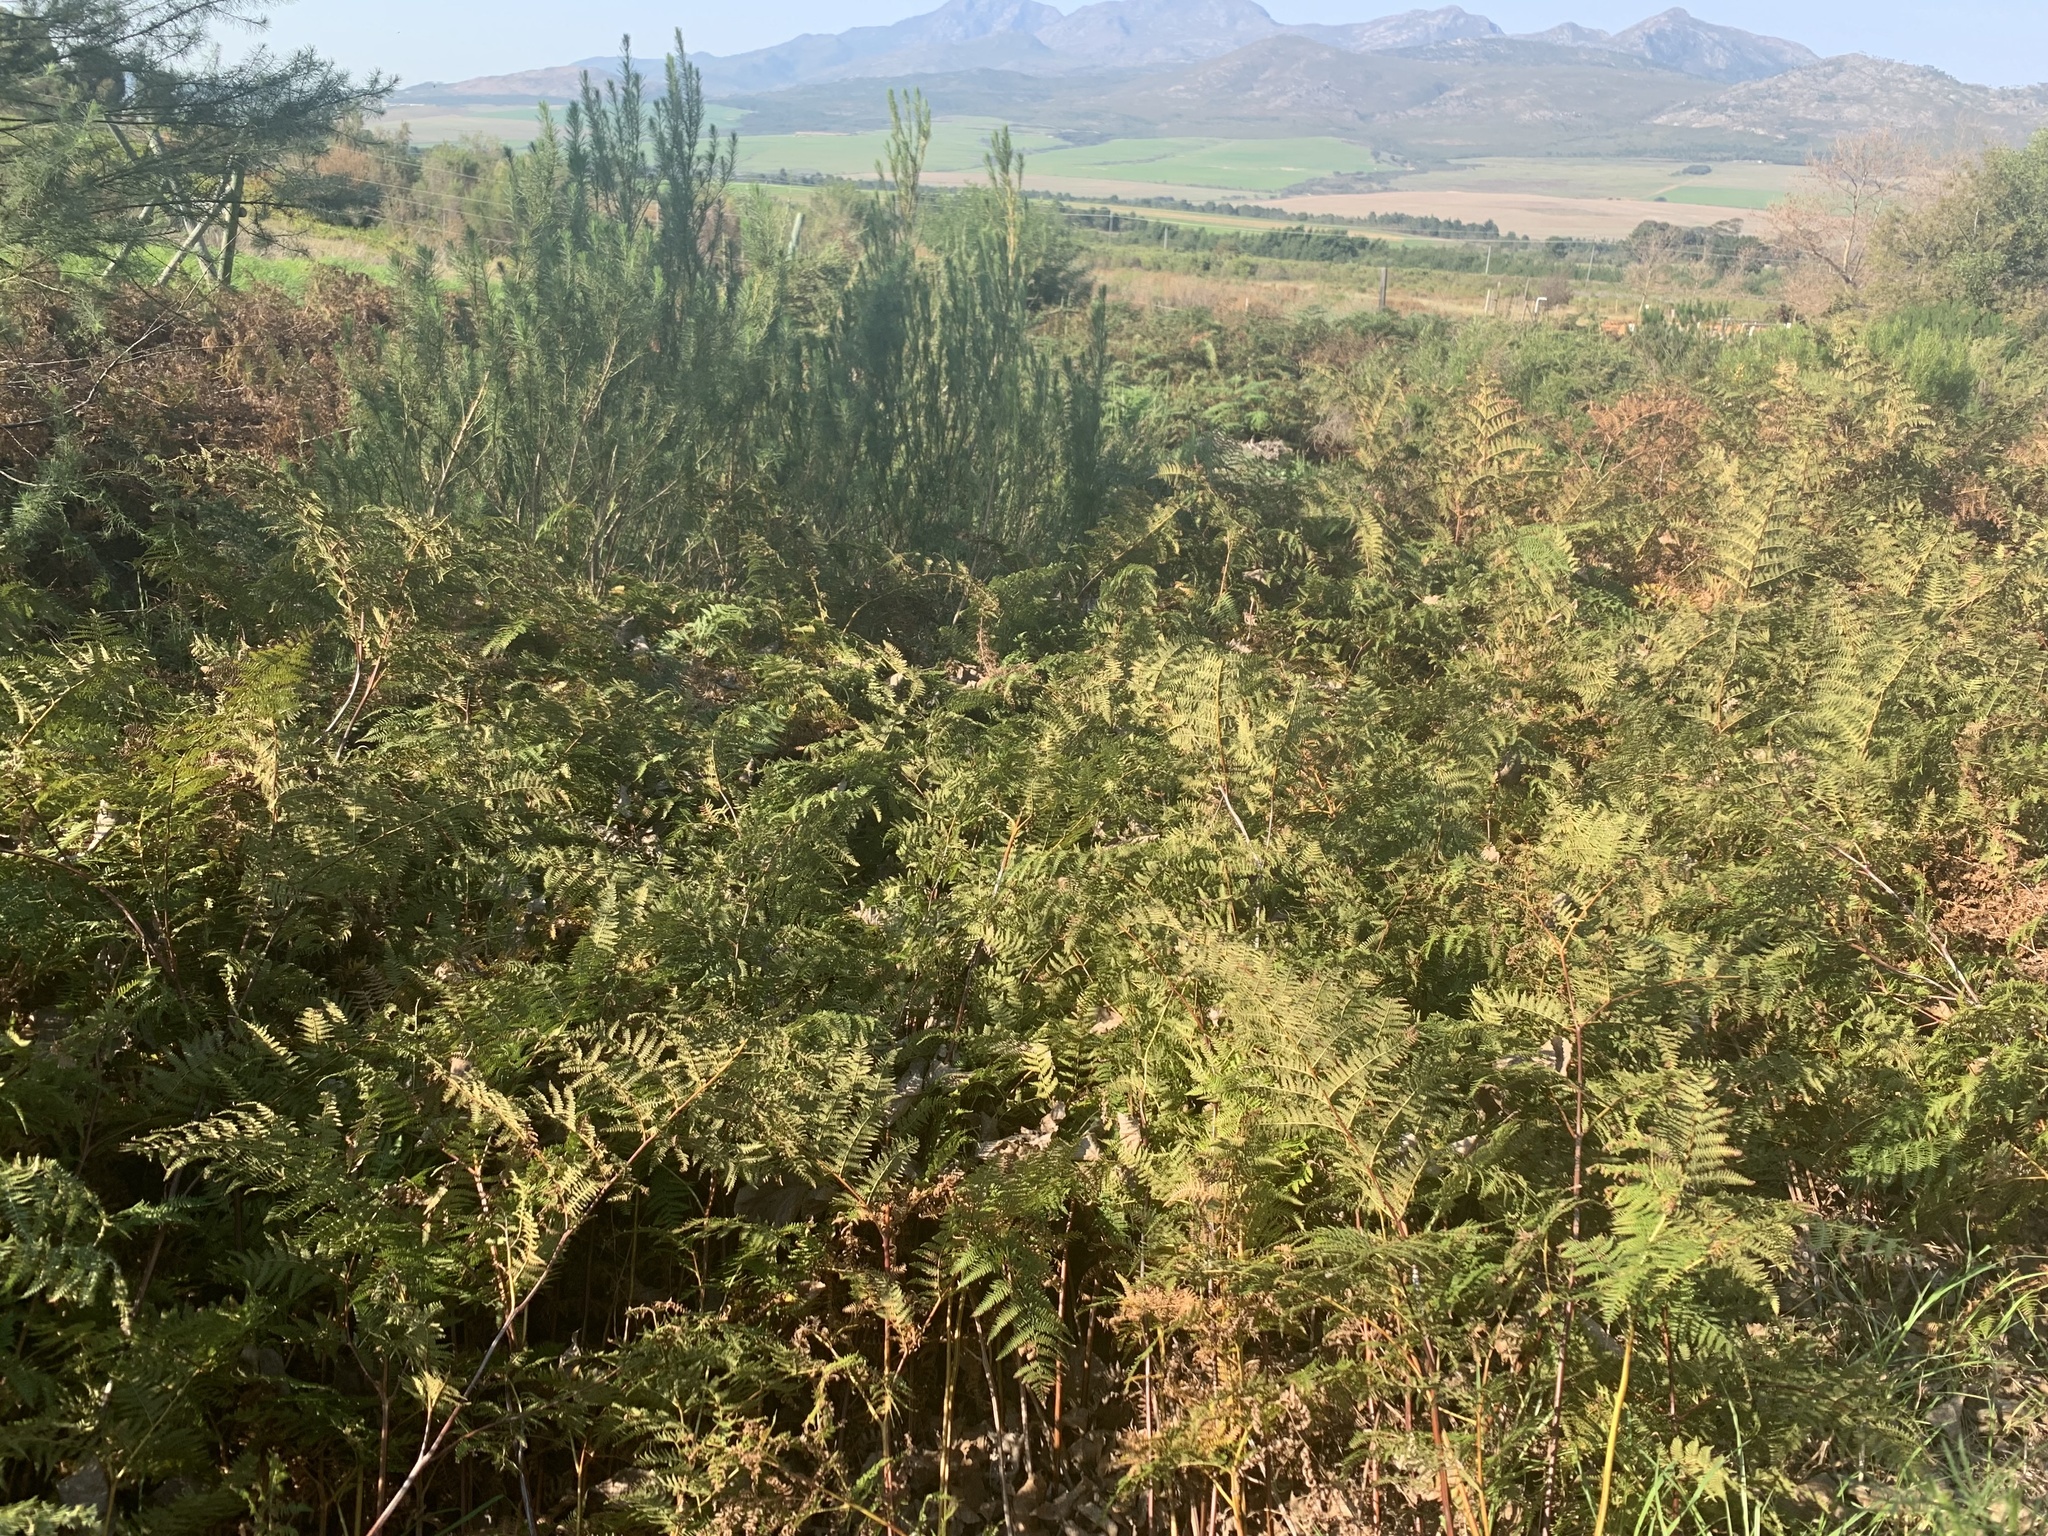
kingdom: Plantae
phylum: Tracheophyta
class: Polypodiopsida
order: Polypodiales
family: Dennstaedtiaceae
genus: Pteridium
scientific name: Pteridium aquilinum
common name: Bracken
